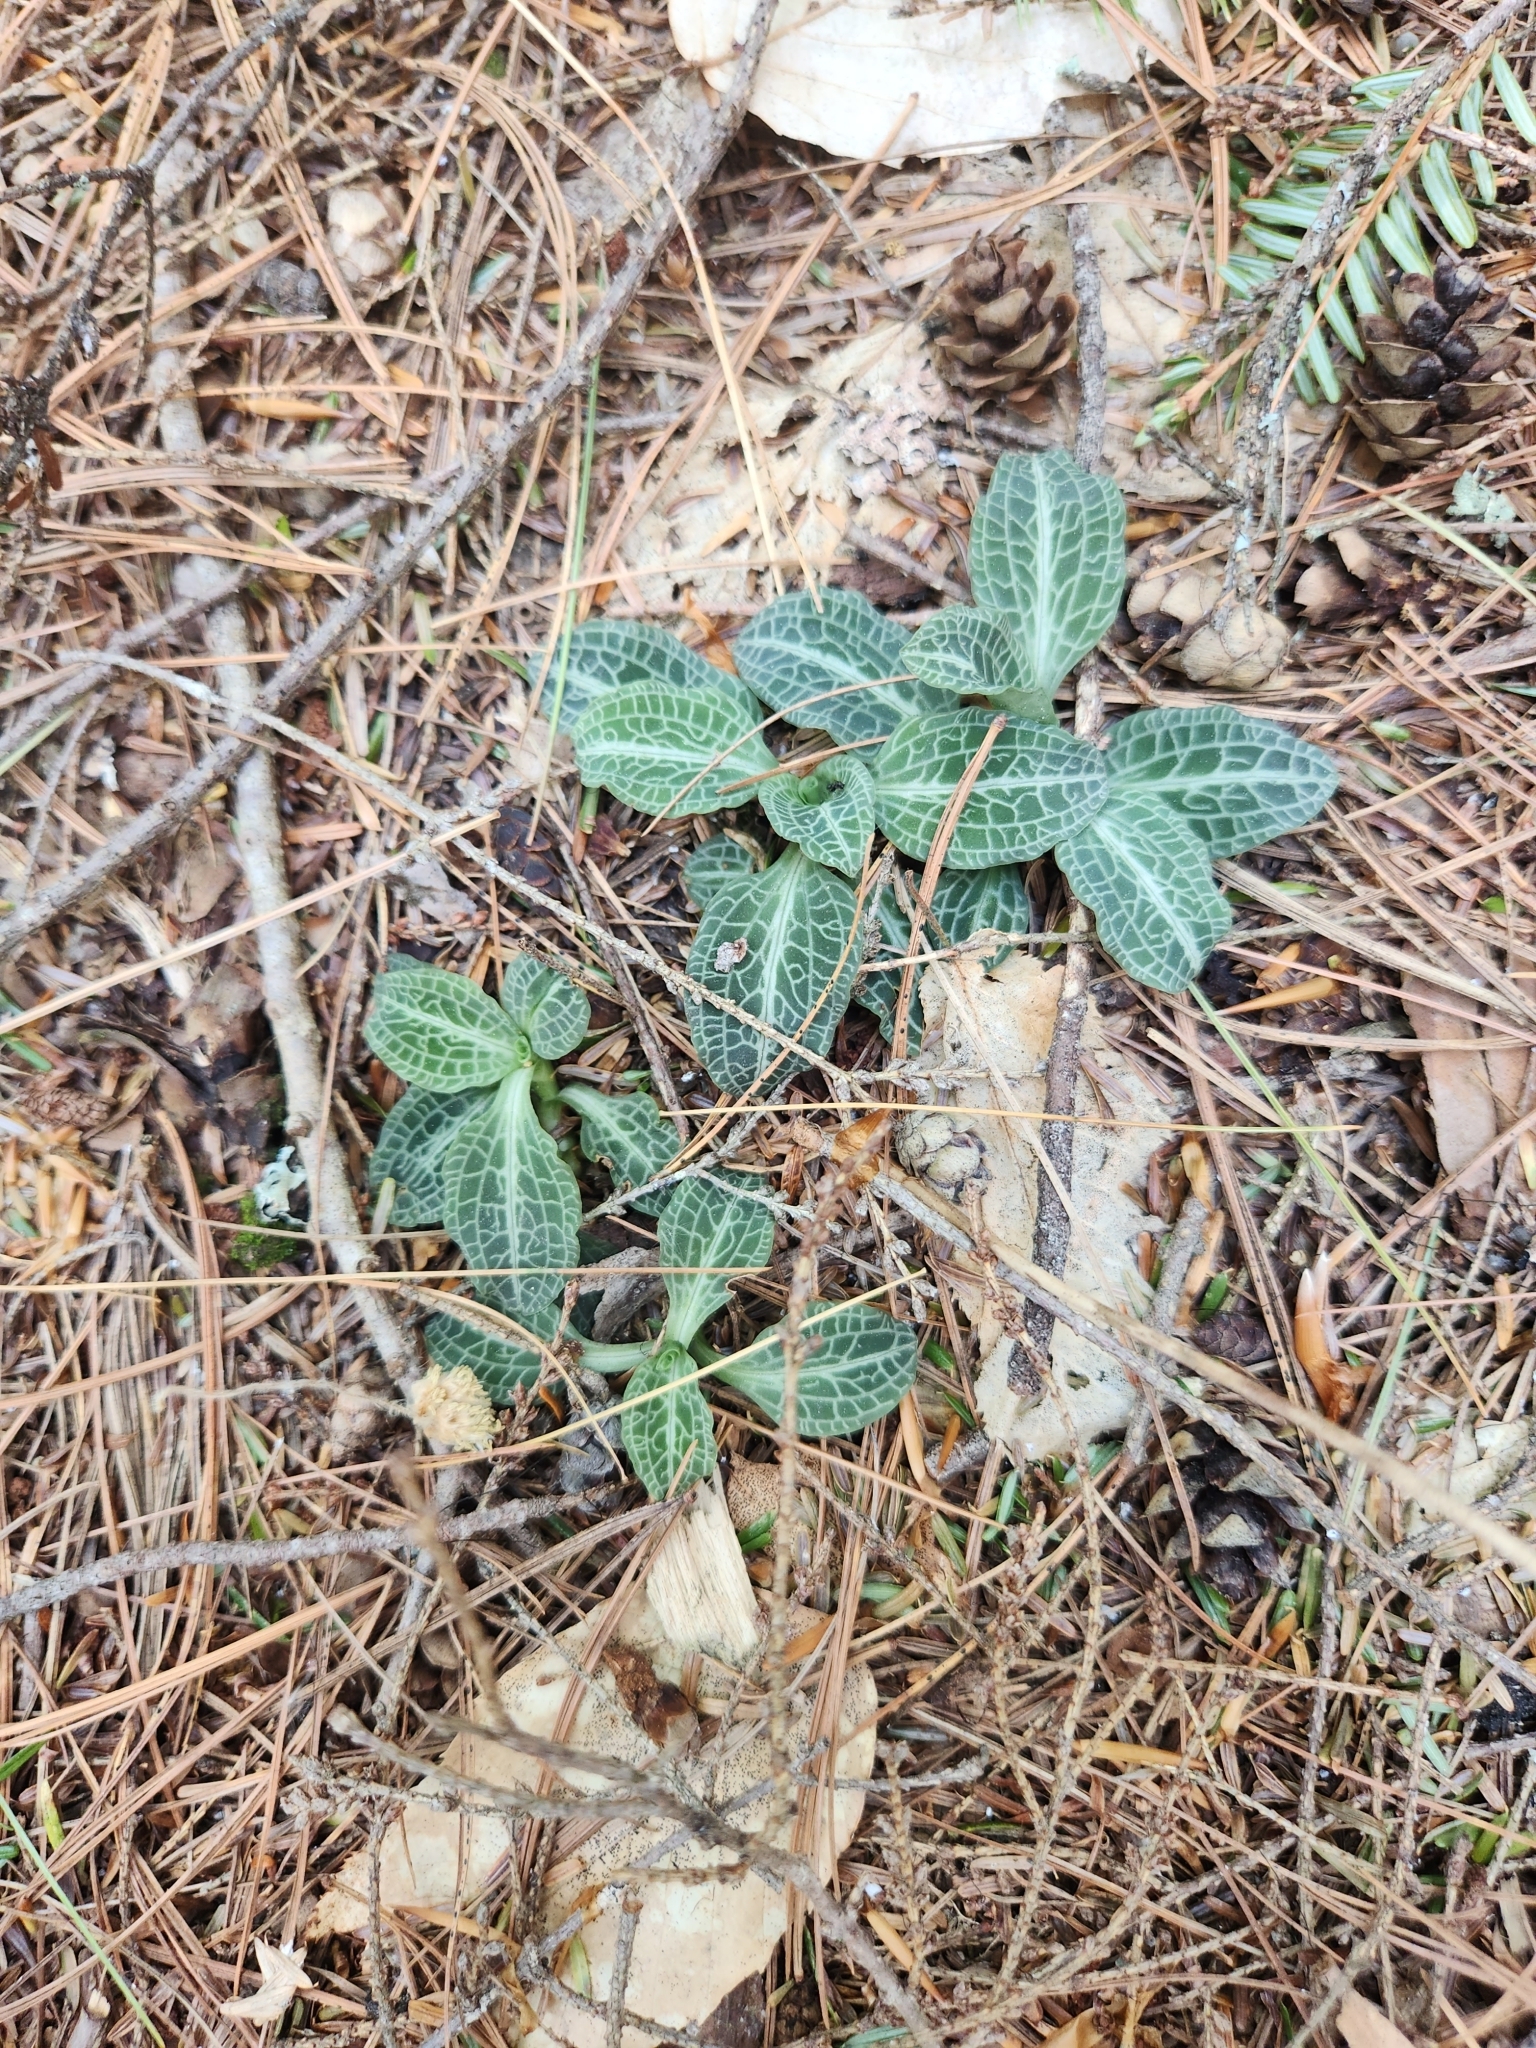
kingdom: Plantae
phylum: Tracheophyta
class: Liliopsida
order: Asparagales
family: Orchidaceae
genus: Goodyera
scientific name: Goodyera pubescens
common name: Downy rattlesnake-plantain
